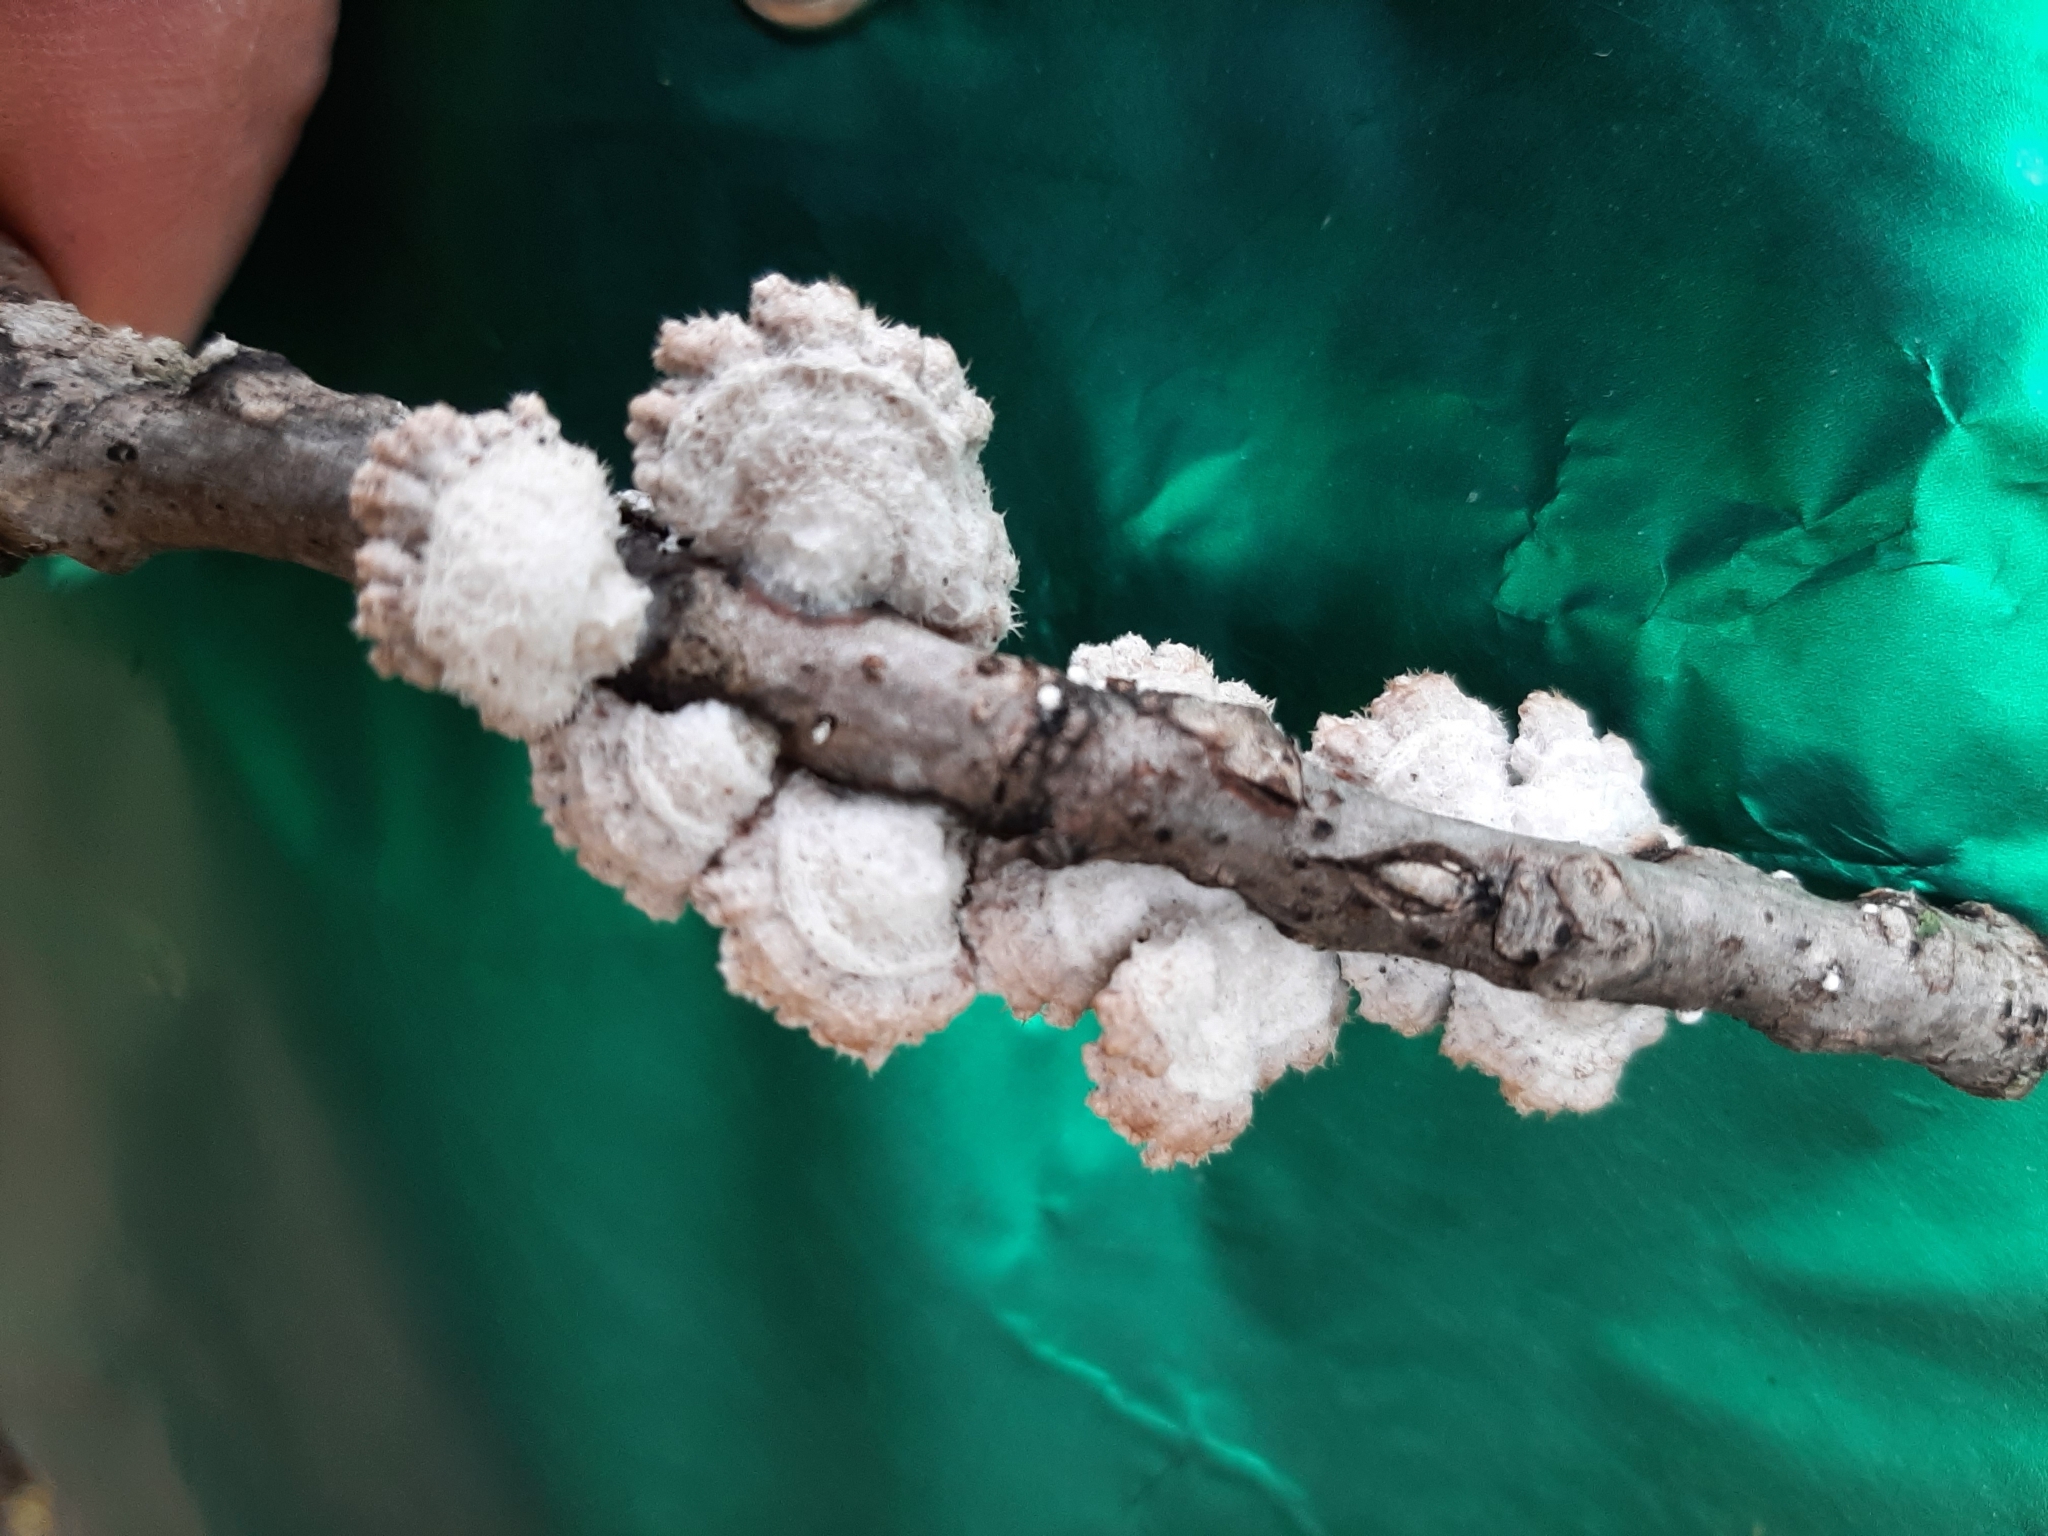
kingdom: Fungi
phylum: Basidiomycota
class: Agaricomycetes
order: Agaricales
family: Schizophyllaceae
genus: Schizophyllum
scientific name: Schizophyllum commune
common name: Common porecrust
